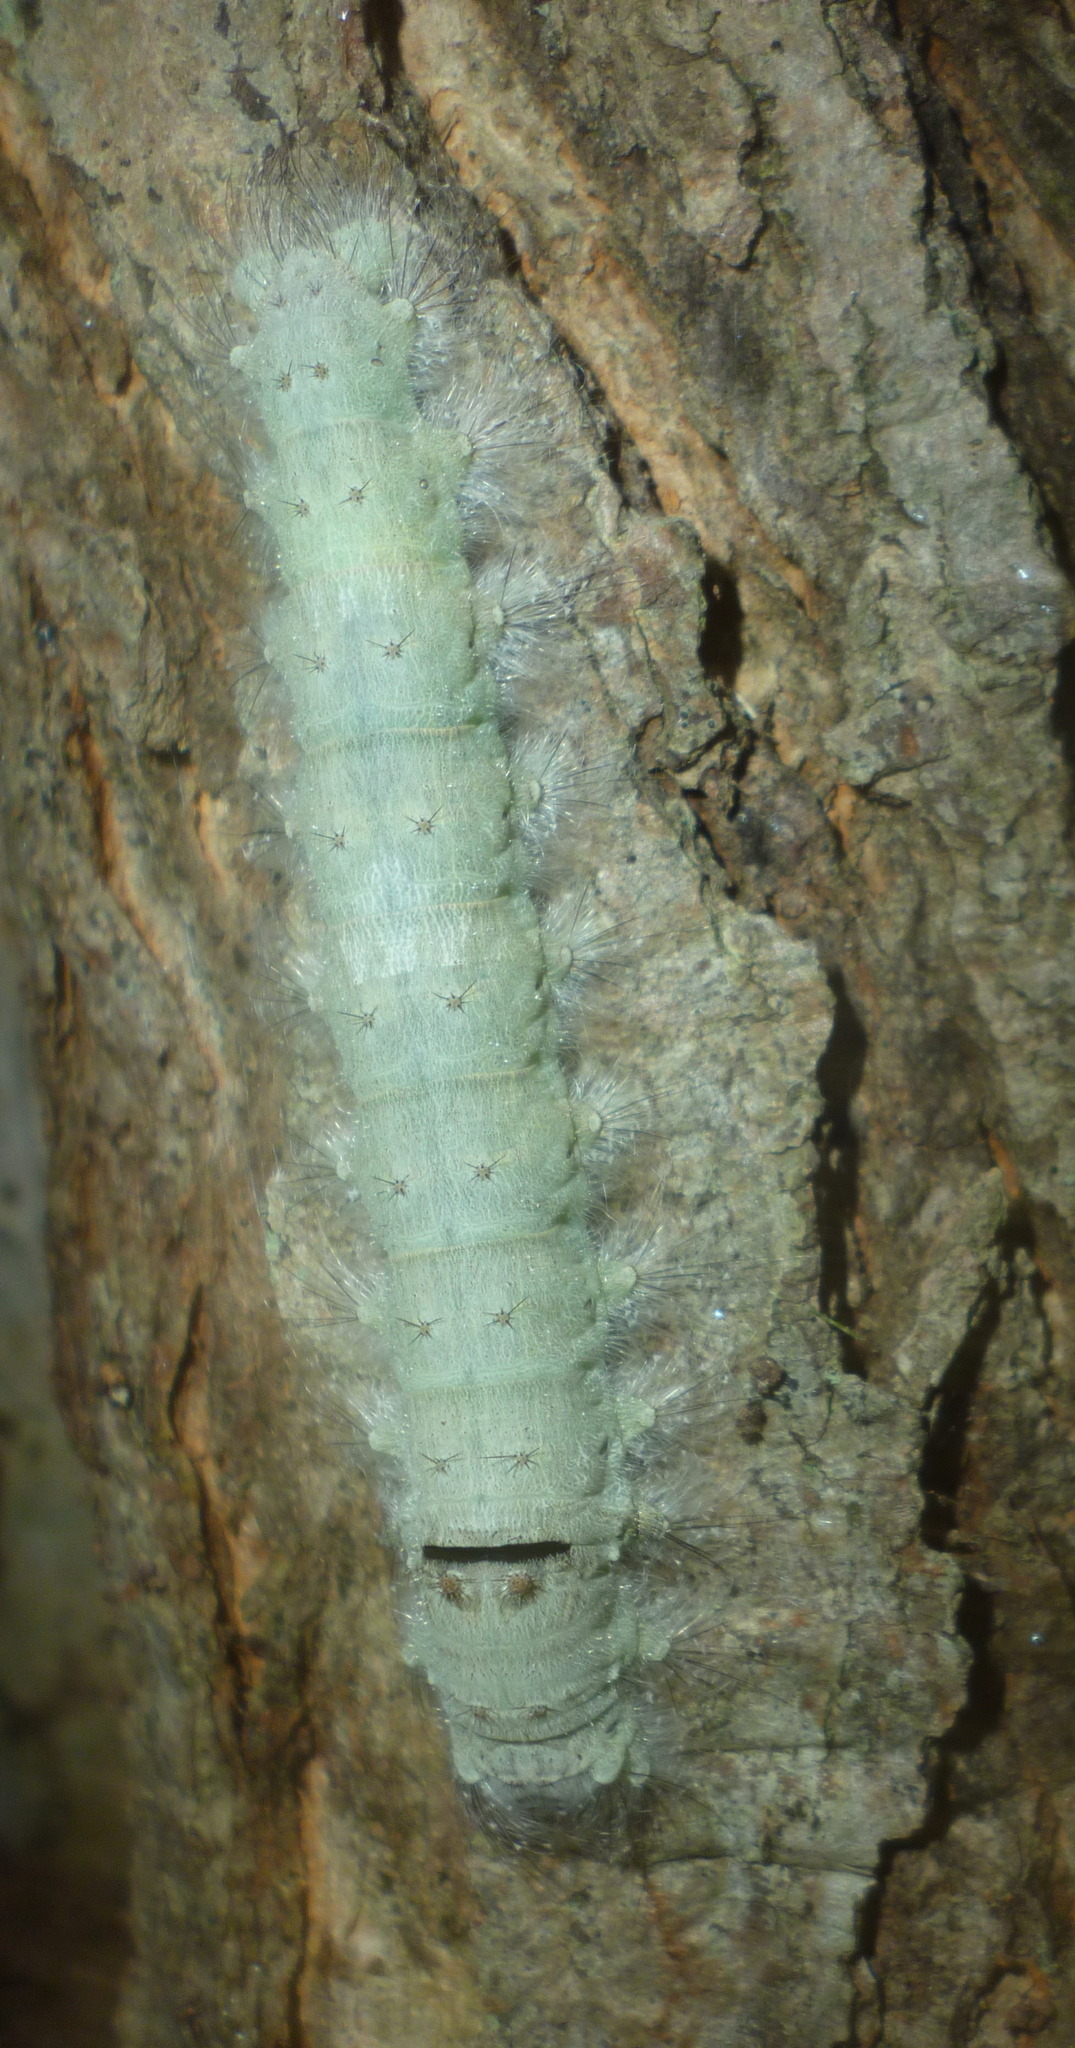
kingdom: Animalia
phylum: Arthropoda
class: Insecta
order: Lepidoptera
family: Lasiocampidae
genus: Tolype
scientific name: Tolype velleda
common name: Large tolype moth
